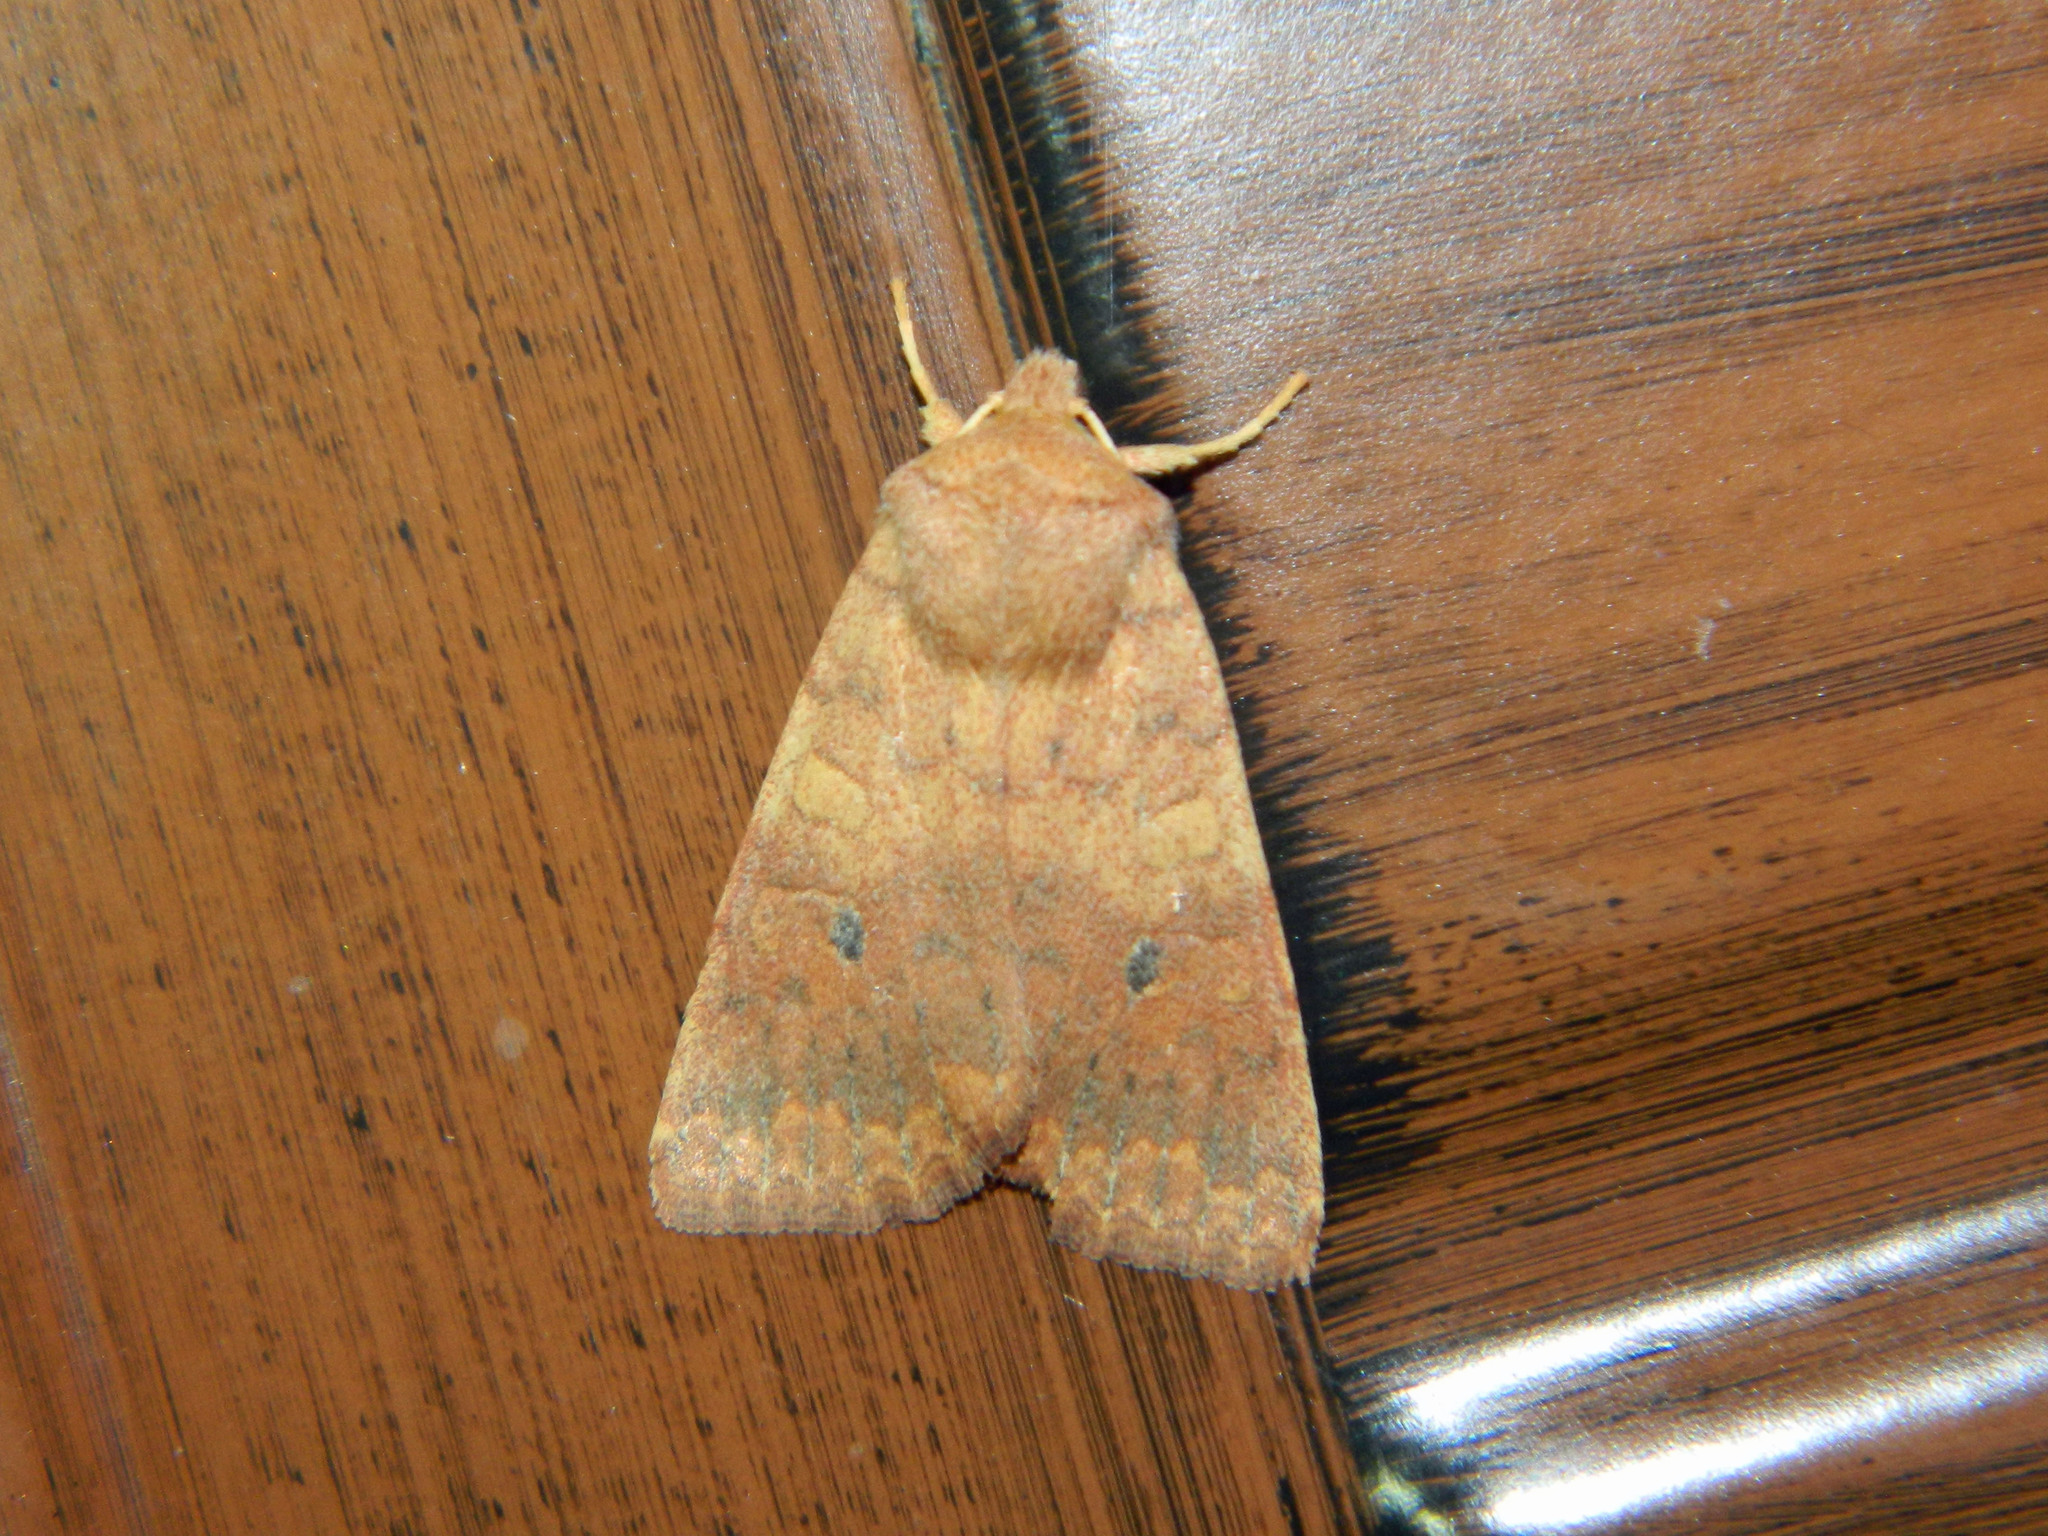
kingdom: Animalia
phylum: Arthropoda
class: Insecta
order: Lepidoptera
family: Noctuidae
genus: Agrochola
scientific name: Agrochola bicolorago
